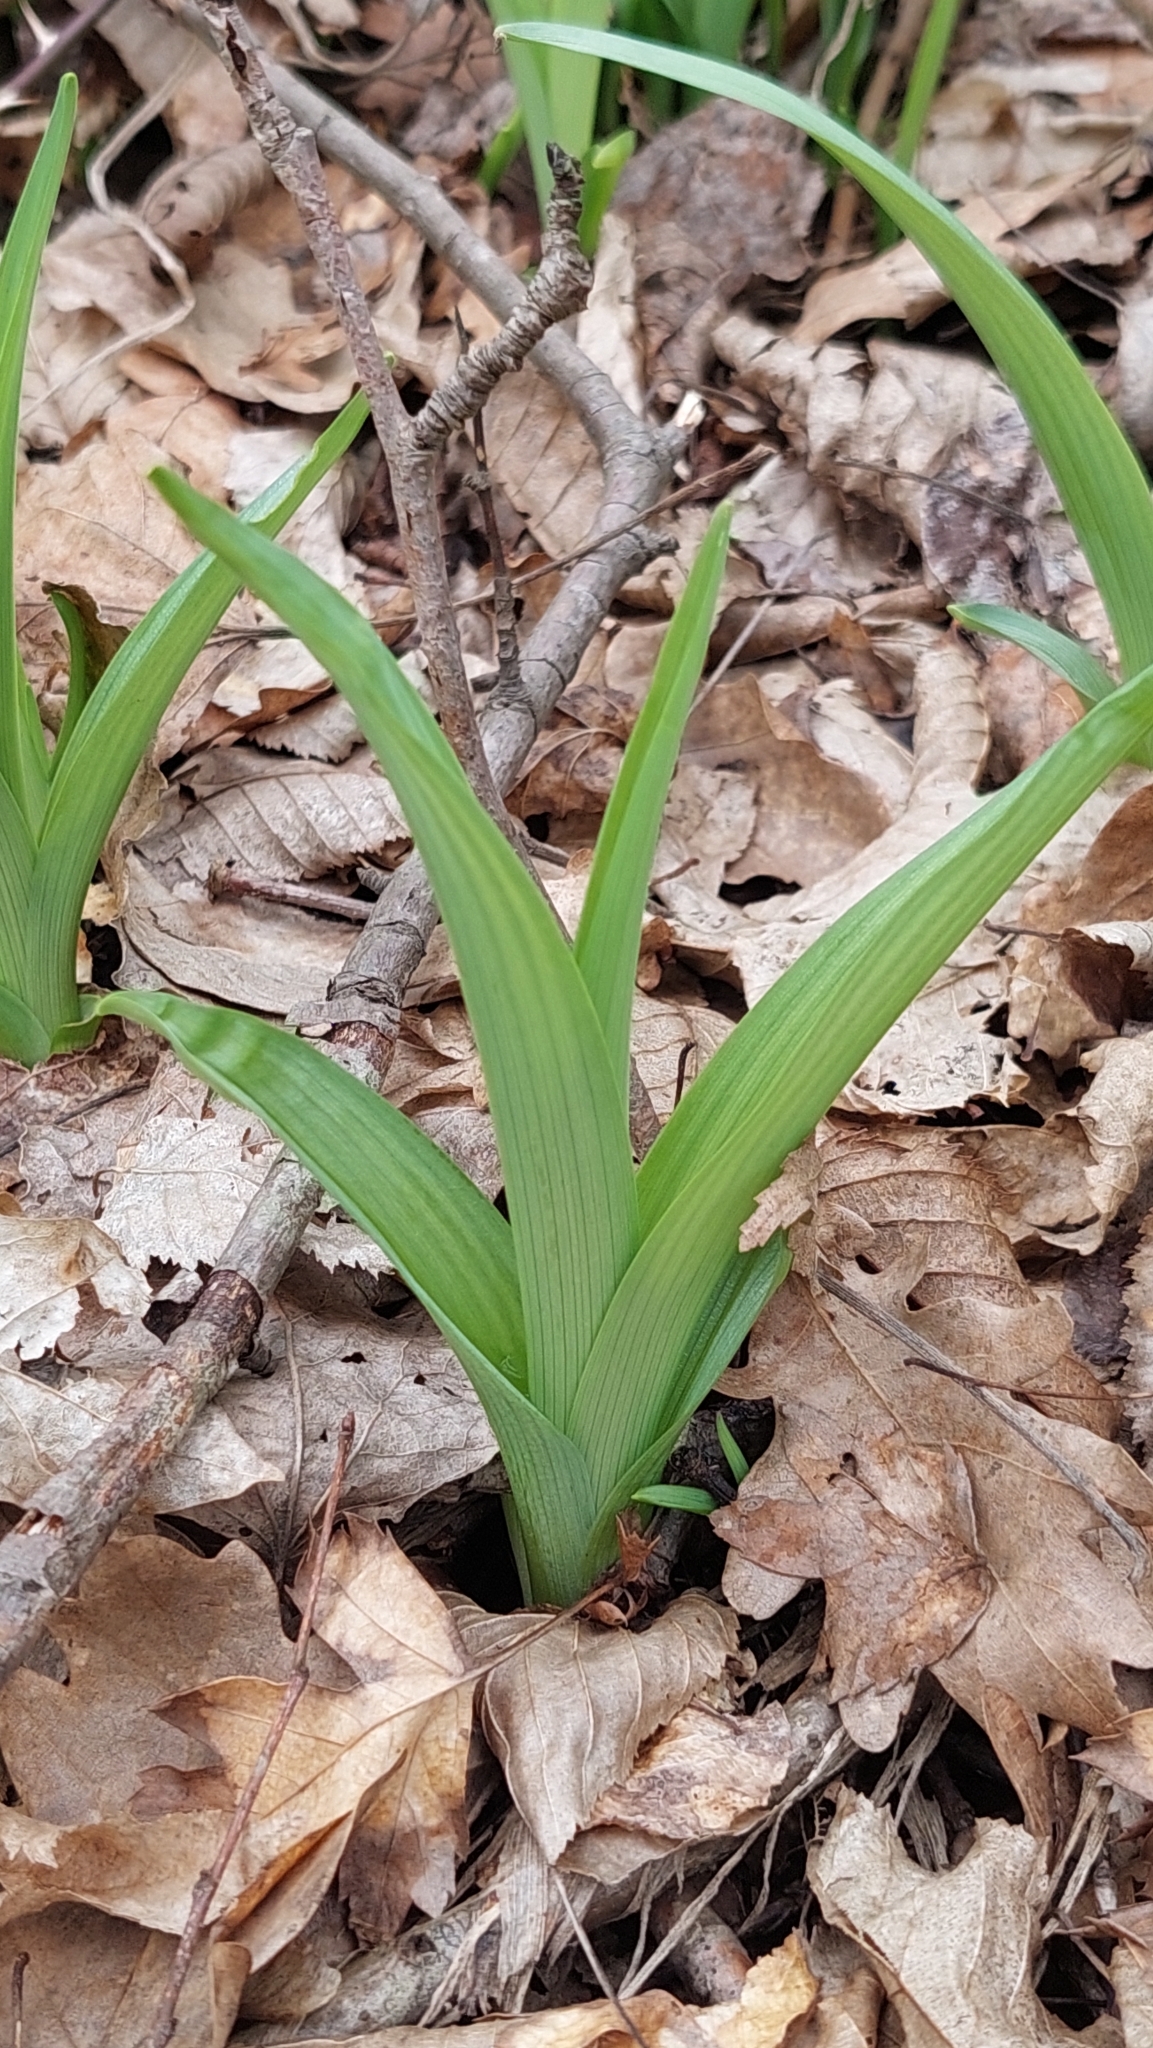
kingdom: Plantae
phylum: Tracheophyta
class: Liliopsida
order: Asparagales
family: Asphodelaceae
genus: Hemerocallis
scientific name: Hemerocallis fulva
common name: Orange day-lily
